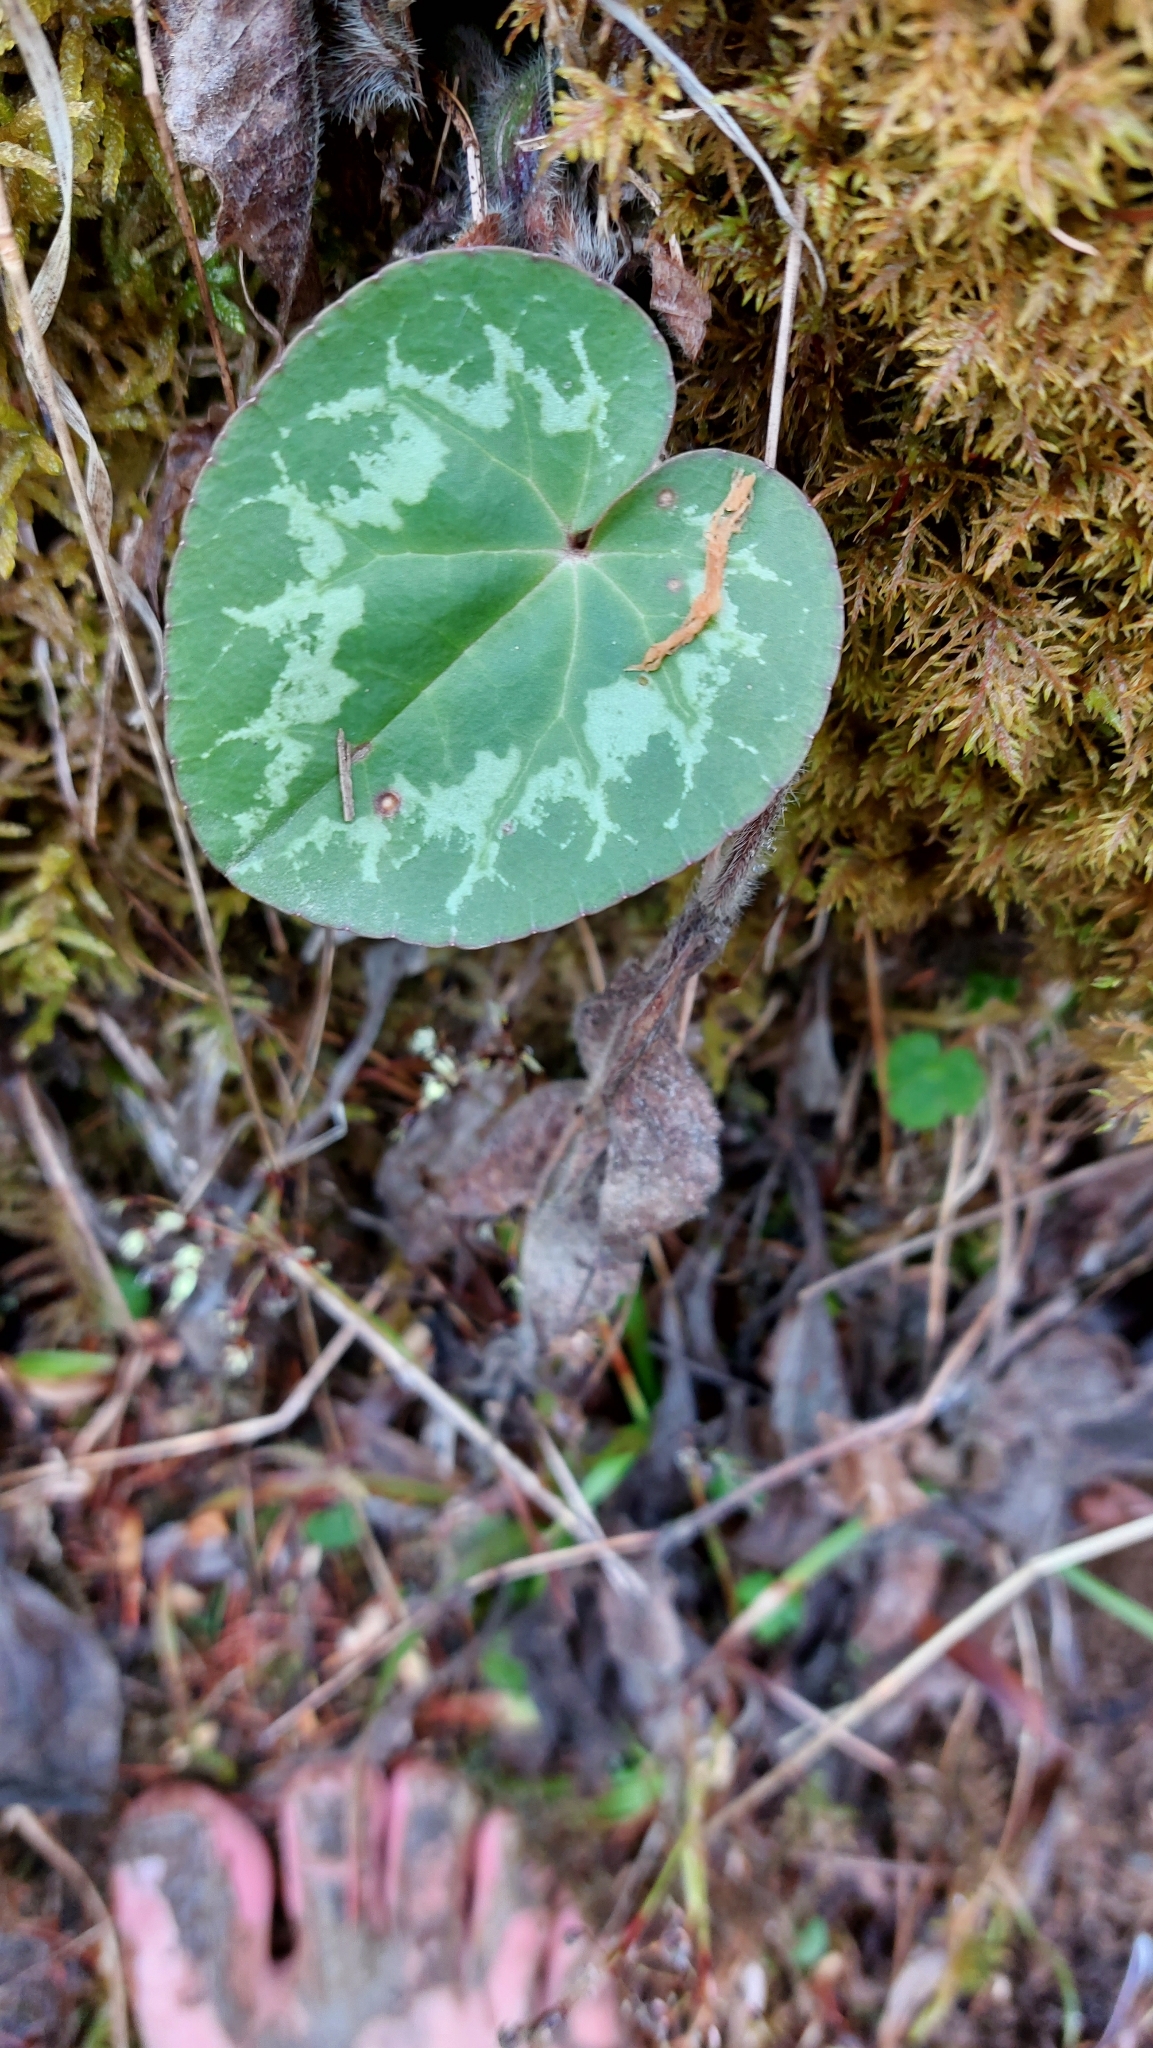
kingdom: Plantae
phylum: Tracheophyta
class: Magnoliopsida
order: Ericales
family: Primulaceae
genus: Cyclamen
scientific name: Cyclamen purpurascens
